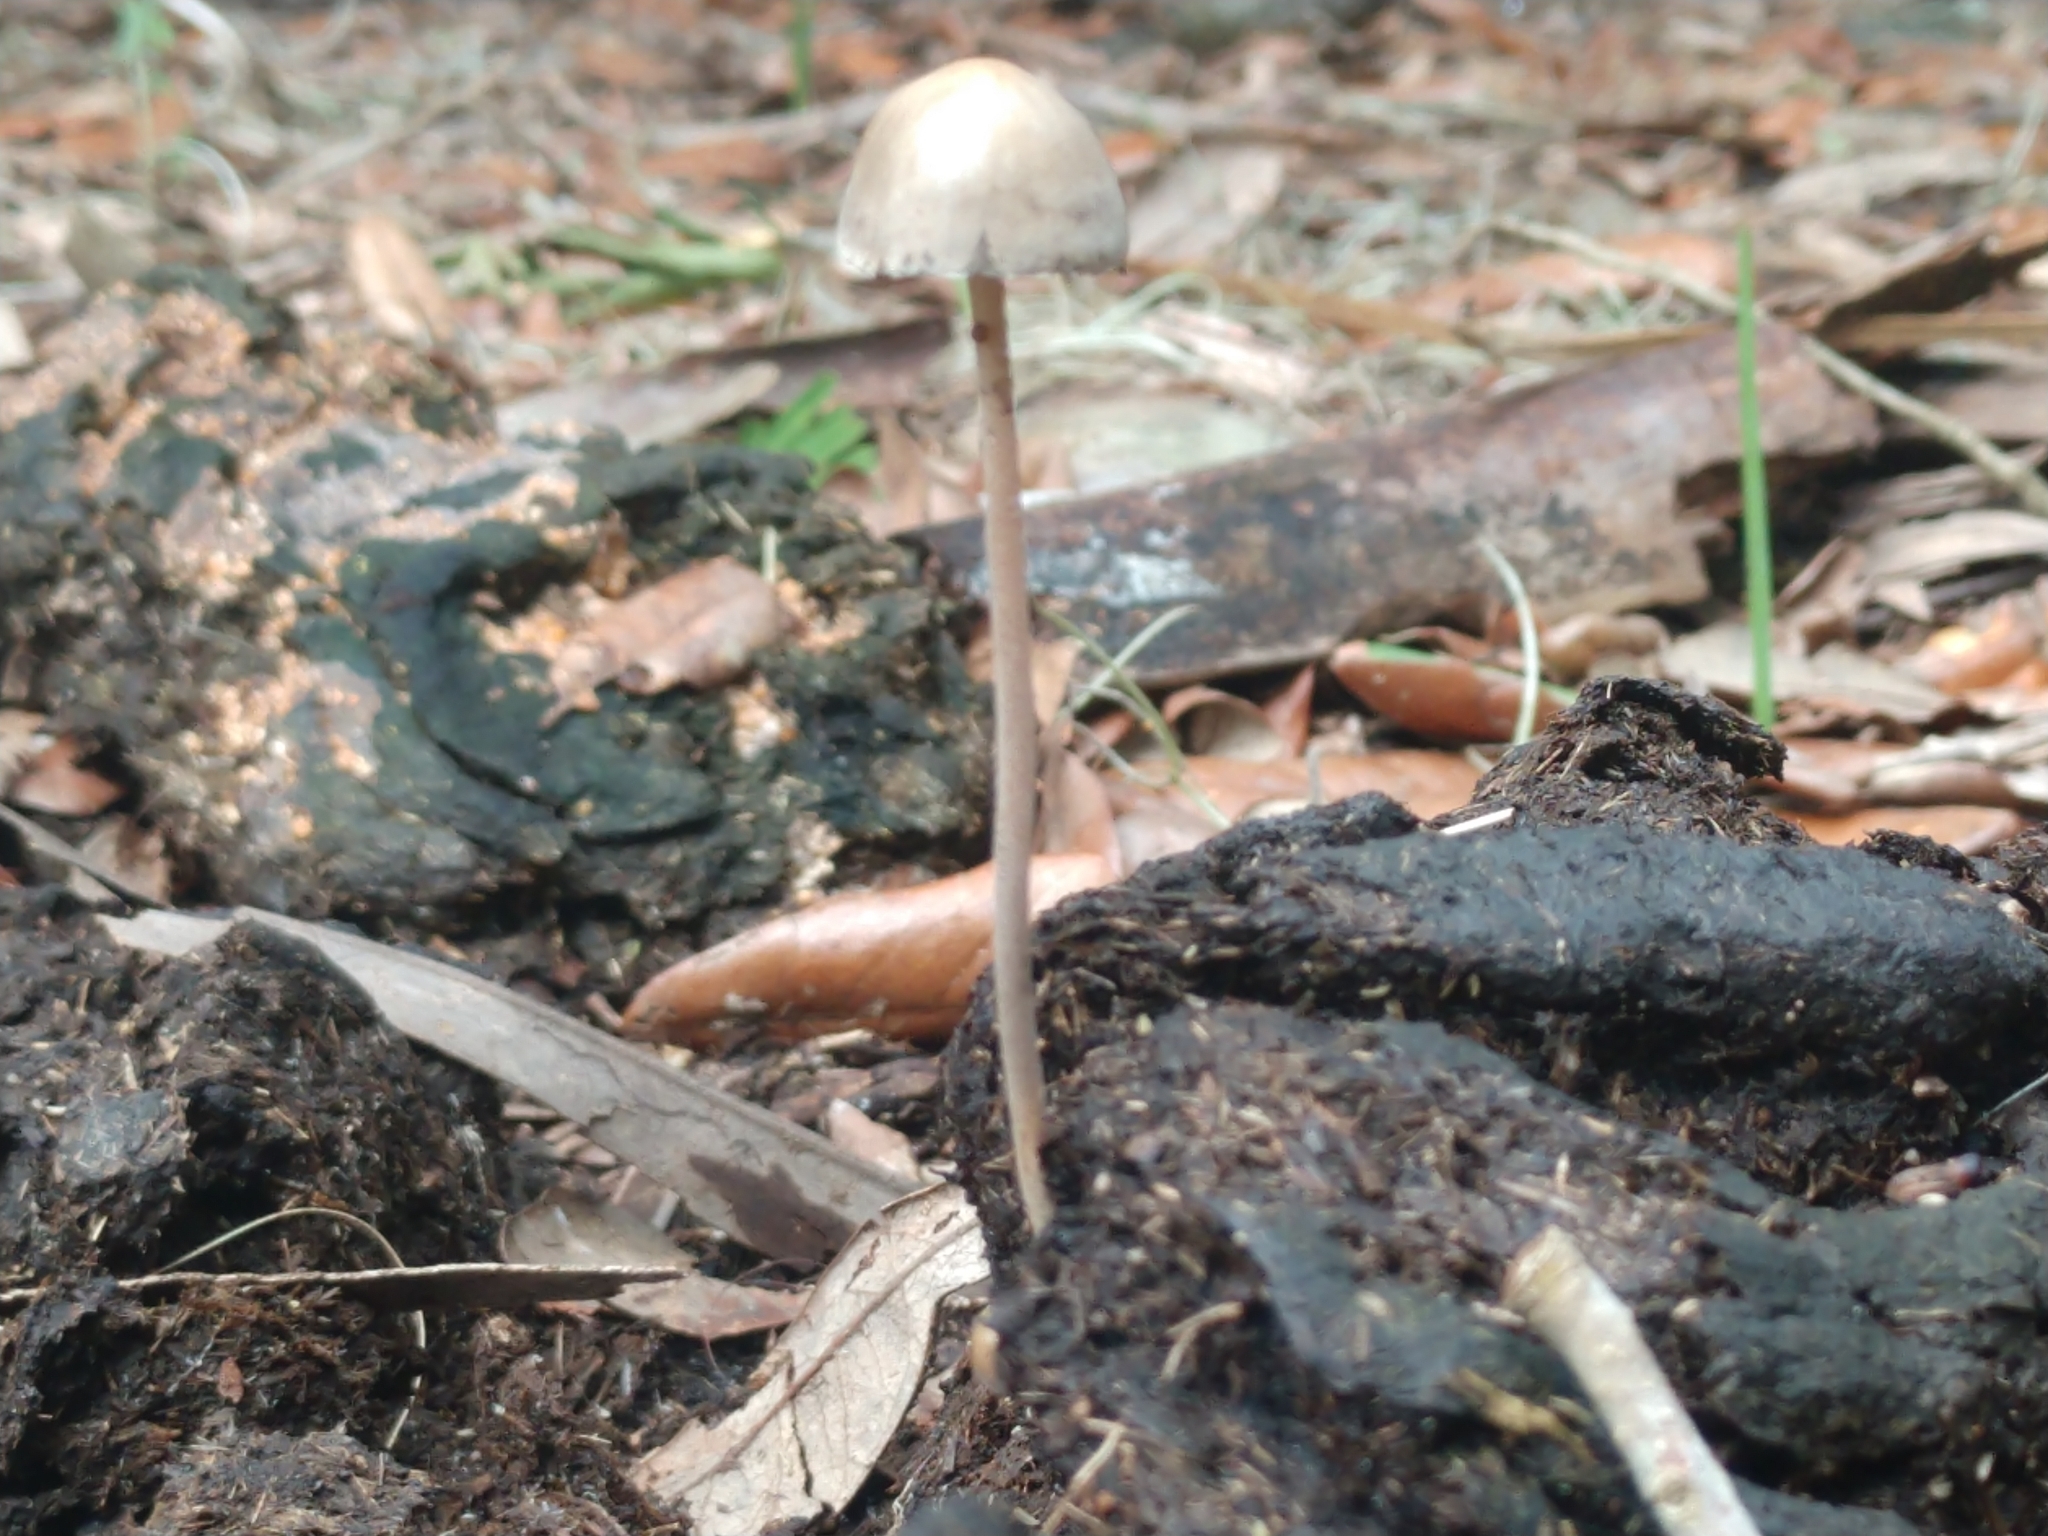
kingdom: Fungi
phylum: Basidiomycota
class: Agaricomycetes
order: Agaricales
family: Bolbitiaceae
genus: Panaeolus
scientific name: Panaeolus papilionaceus
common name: Petticoat mottlegill
